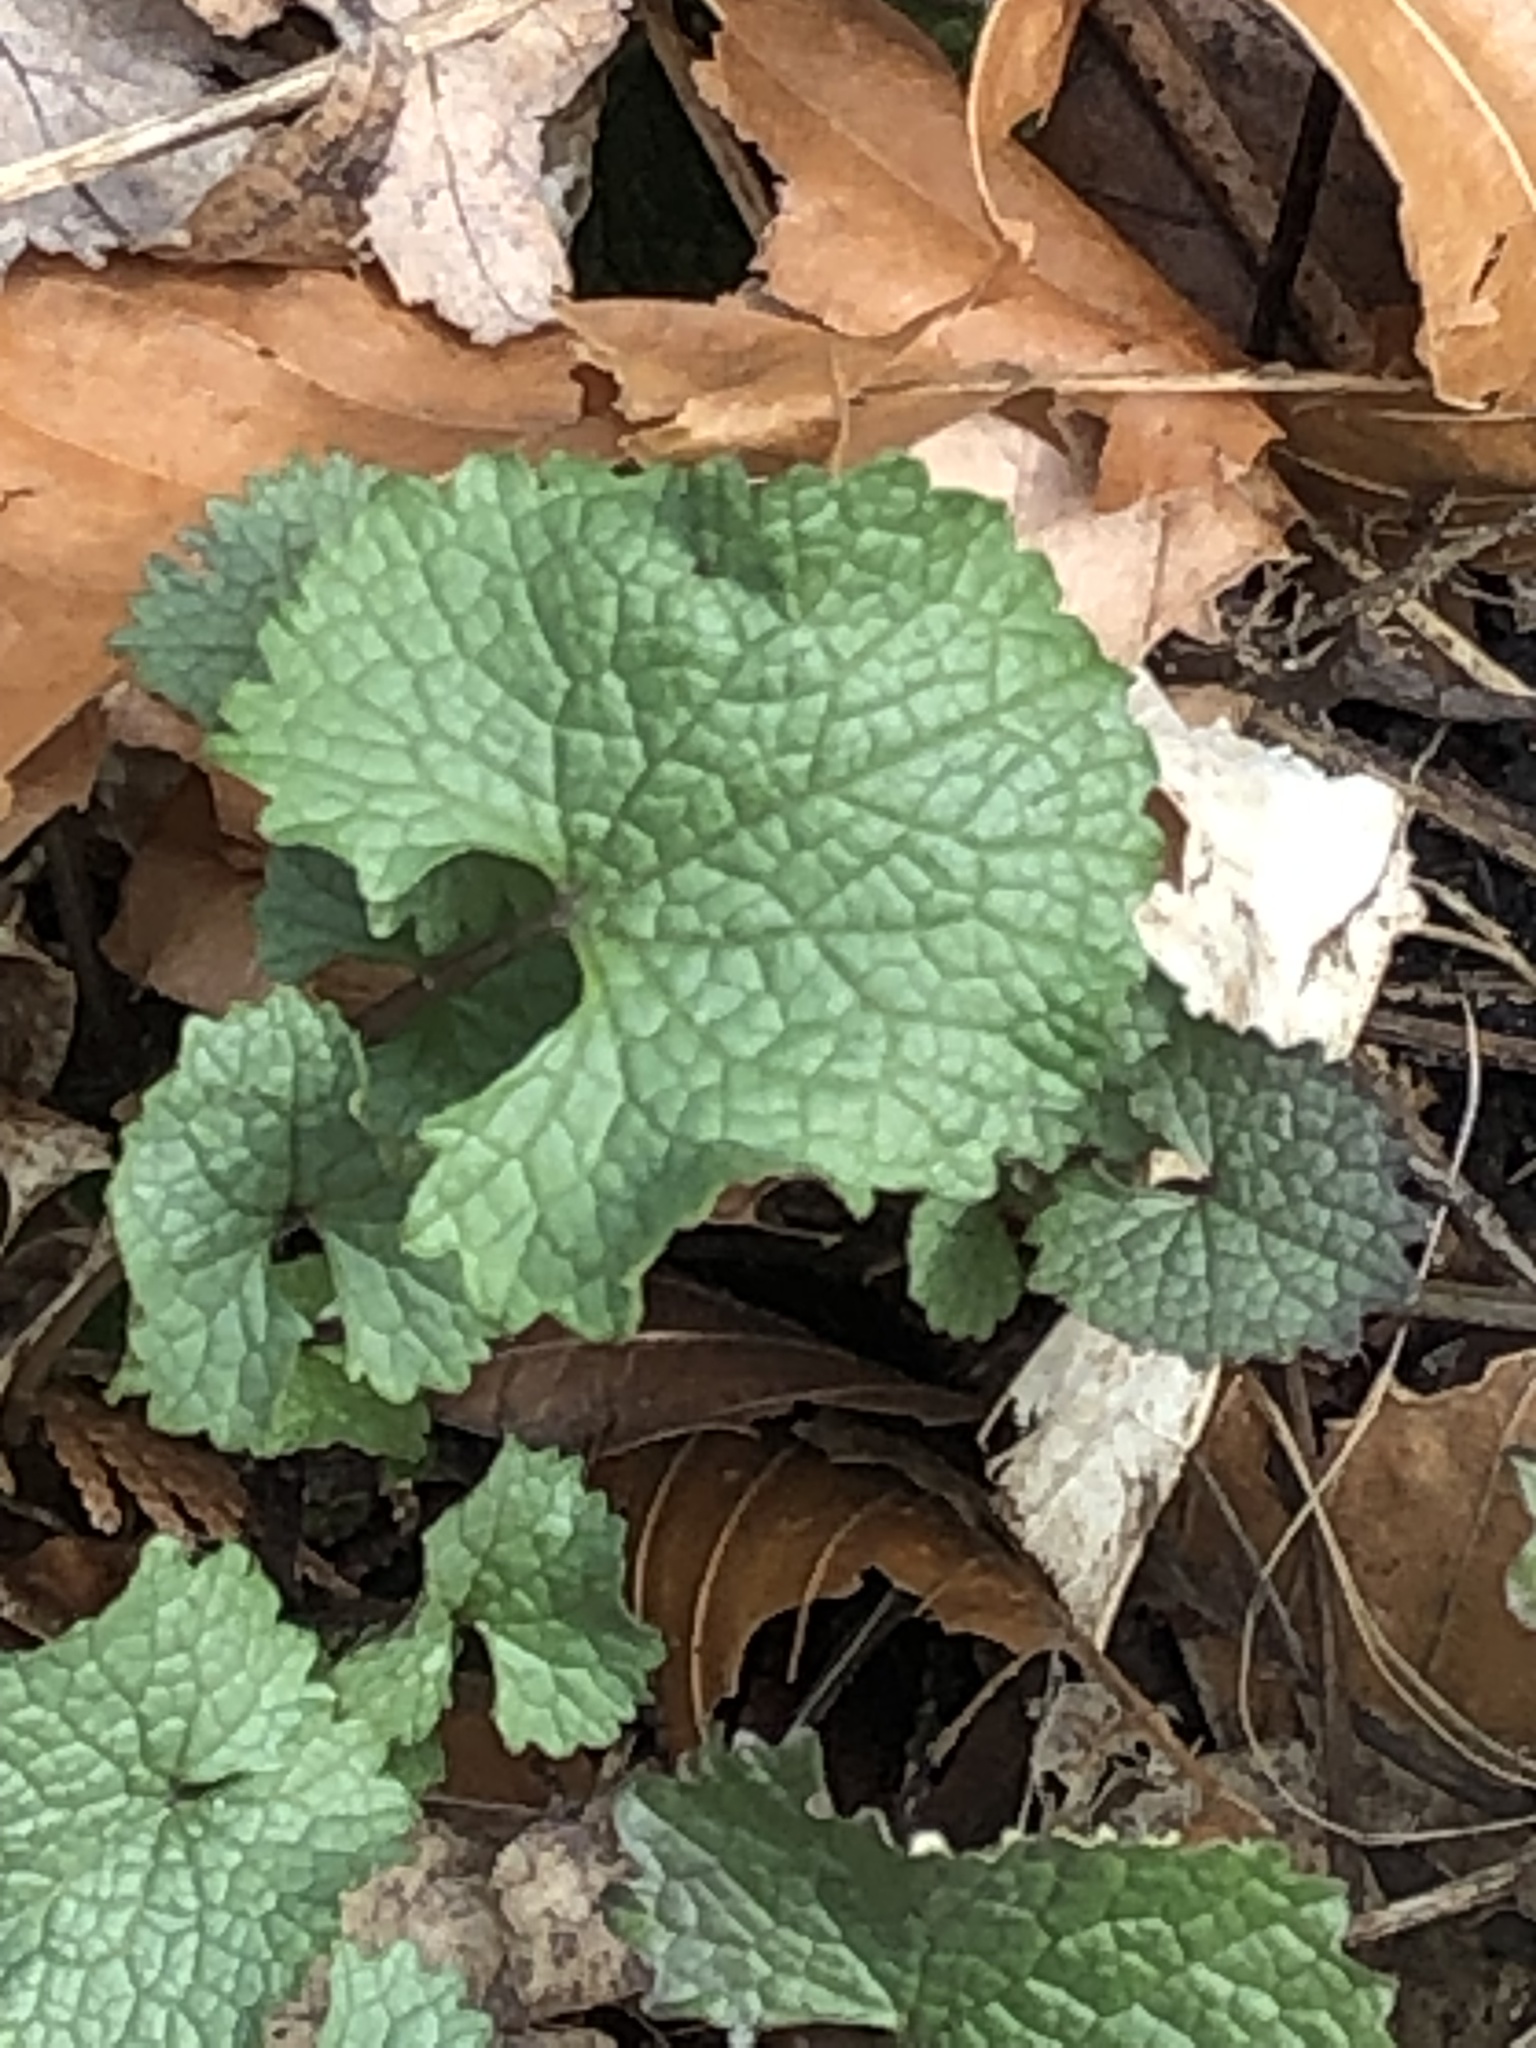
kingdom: Plantae
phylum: Tracheophyta
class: Magnoliopsida
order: Brassicales
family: Brassicaceae
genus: Alliaria
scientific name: Alliaria petiolata
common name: Garlic mustard
